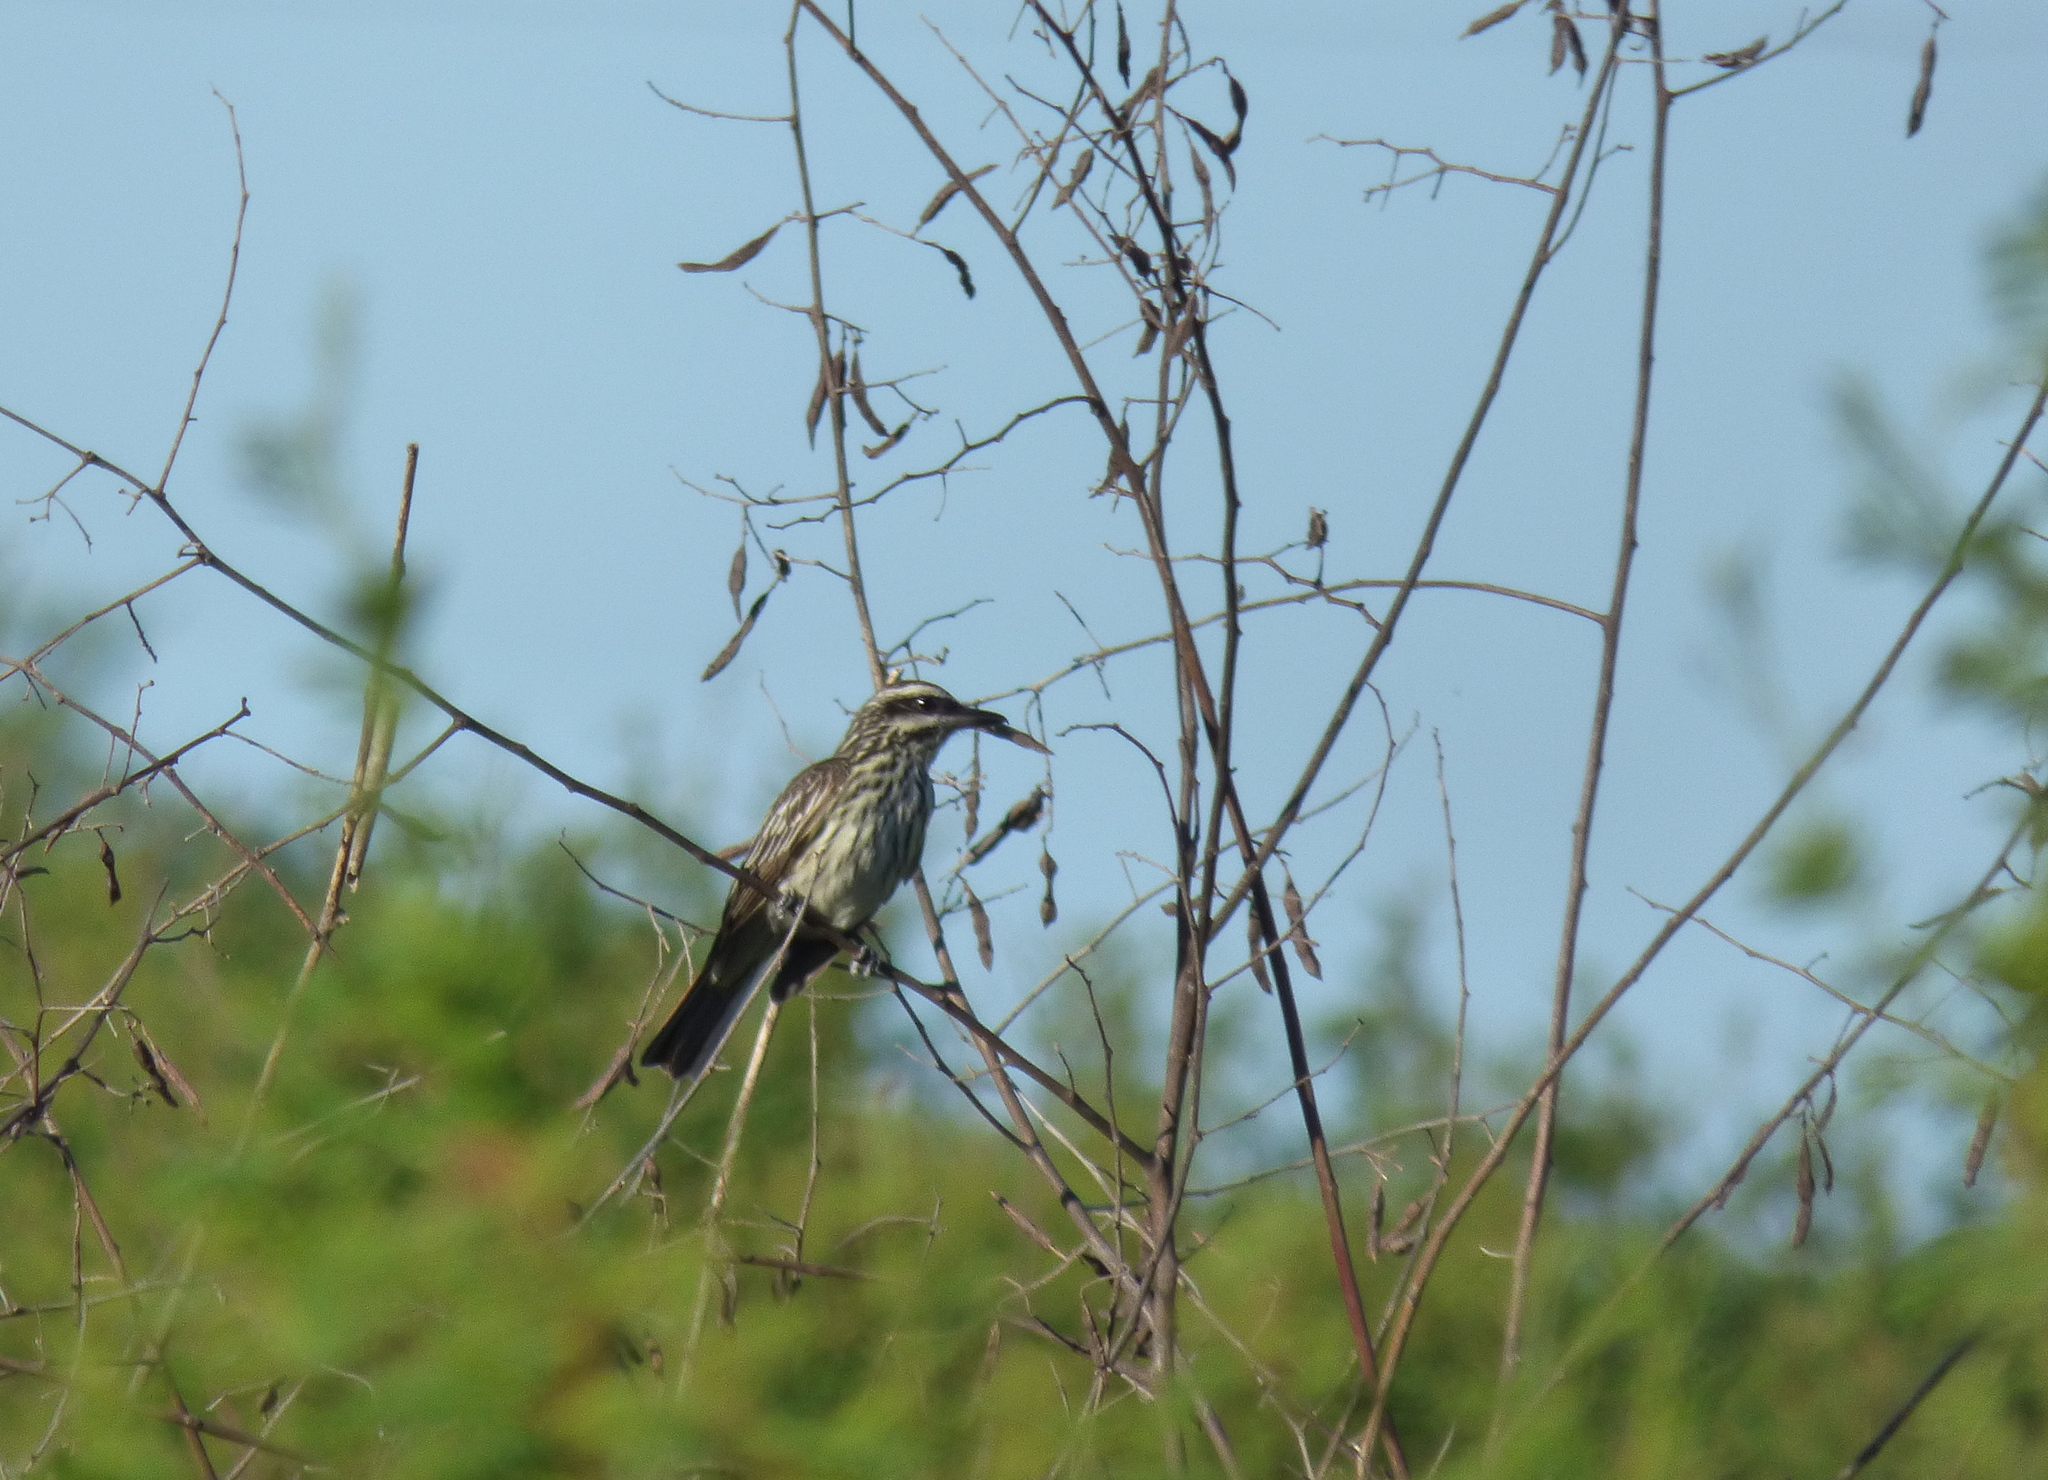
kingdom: Animalia
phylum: Chordata
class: Aves
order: Passeriformes
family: Tyrannidae
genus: Myiodynastes
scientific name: Myiodynastes maculatus
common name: Streaked flycatcher
